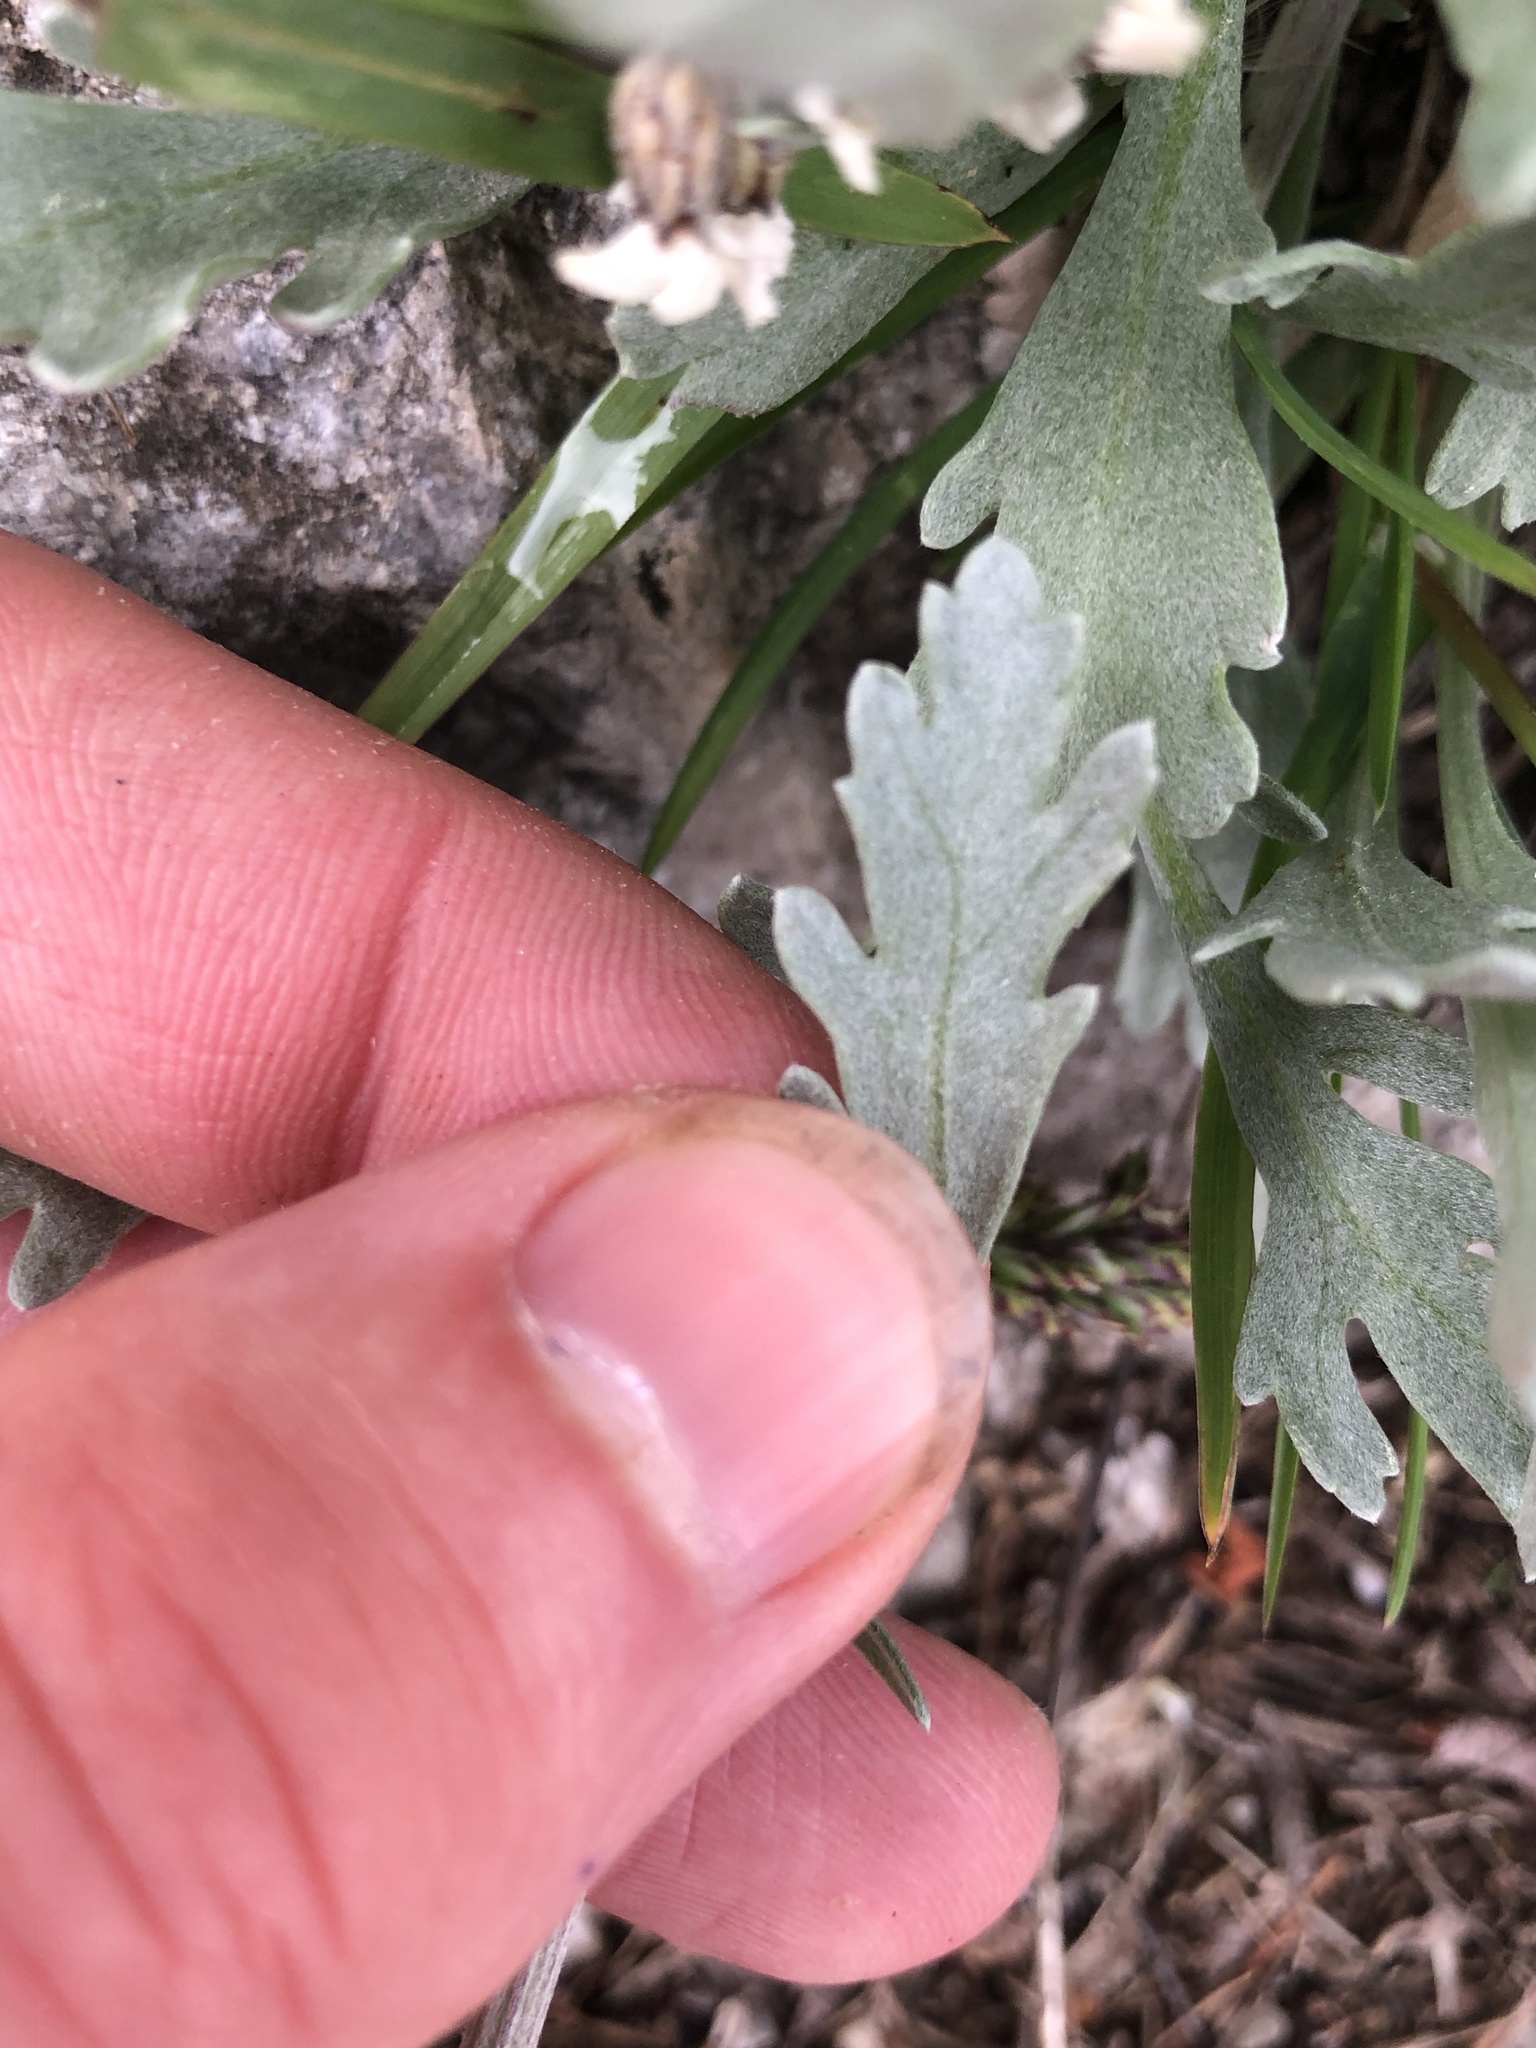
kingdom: Plantae
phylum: Tracheophyta
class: Magnoliopsida
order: Asterales
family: Asteraceae
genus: Achillea
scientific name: Achillea clavennae
